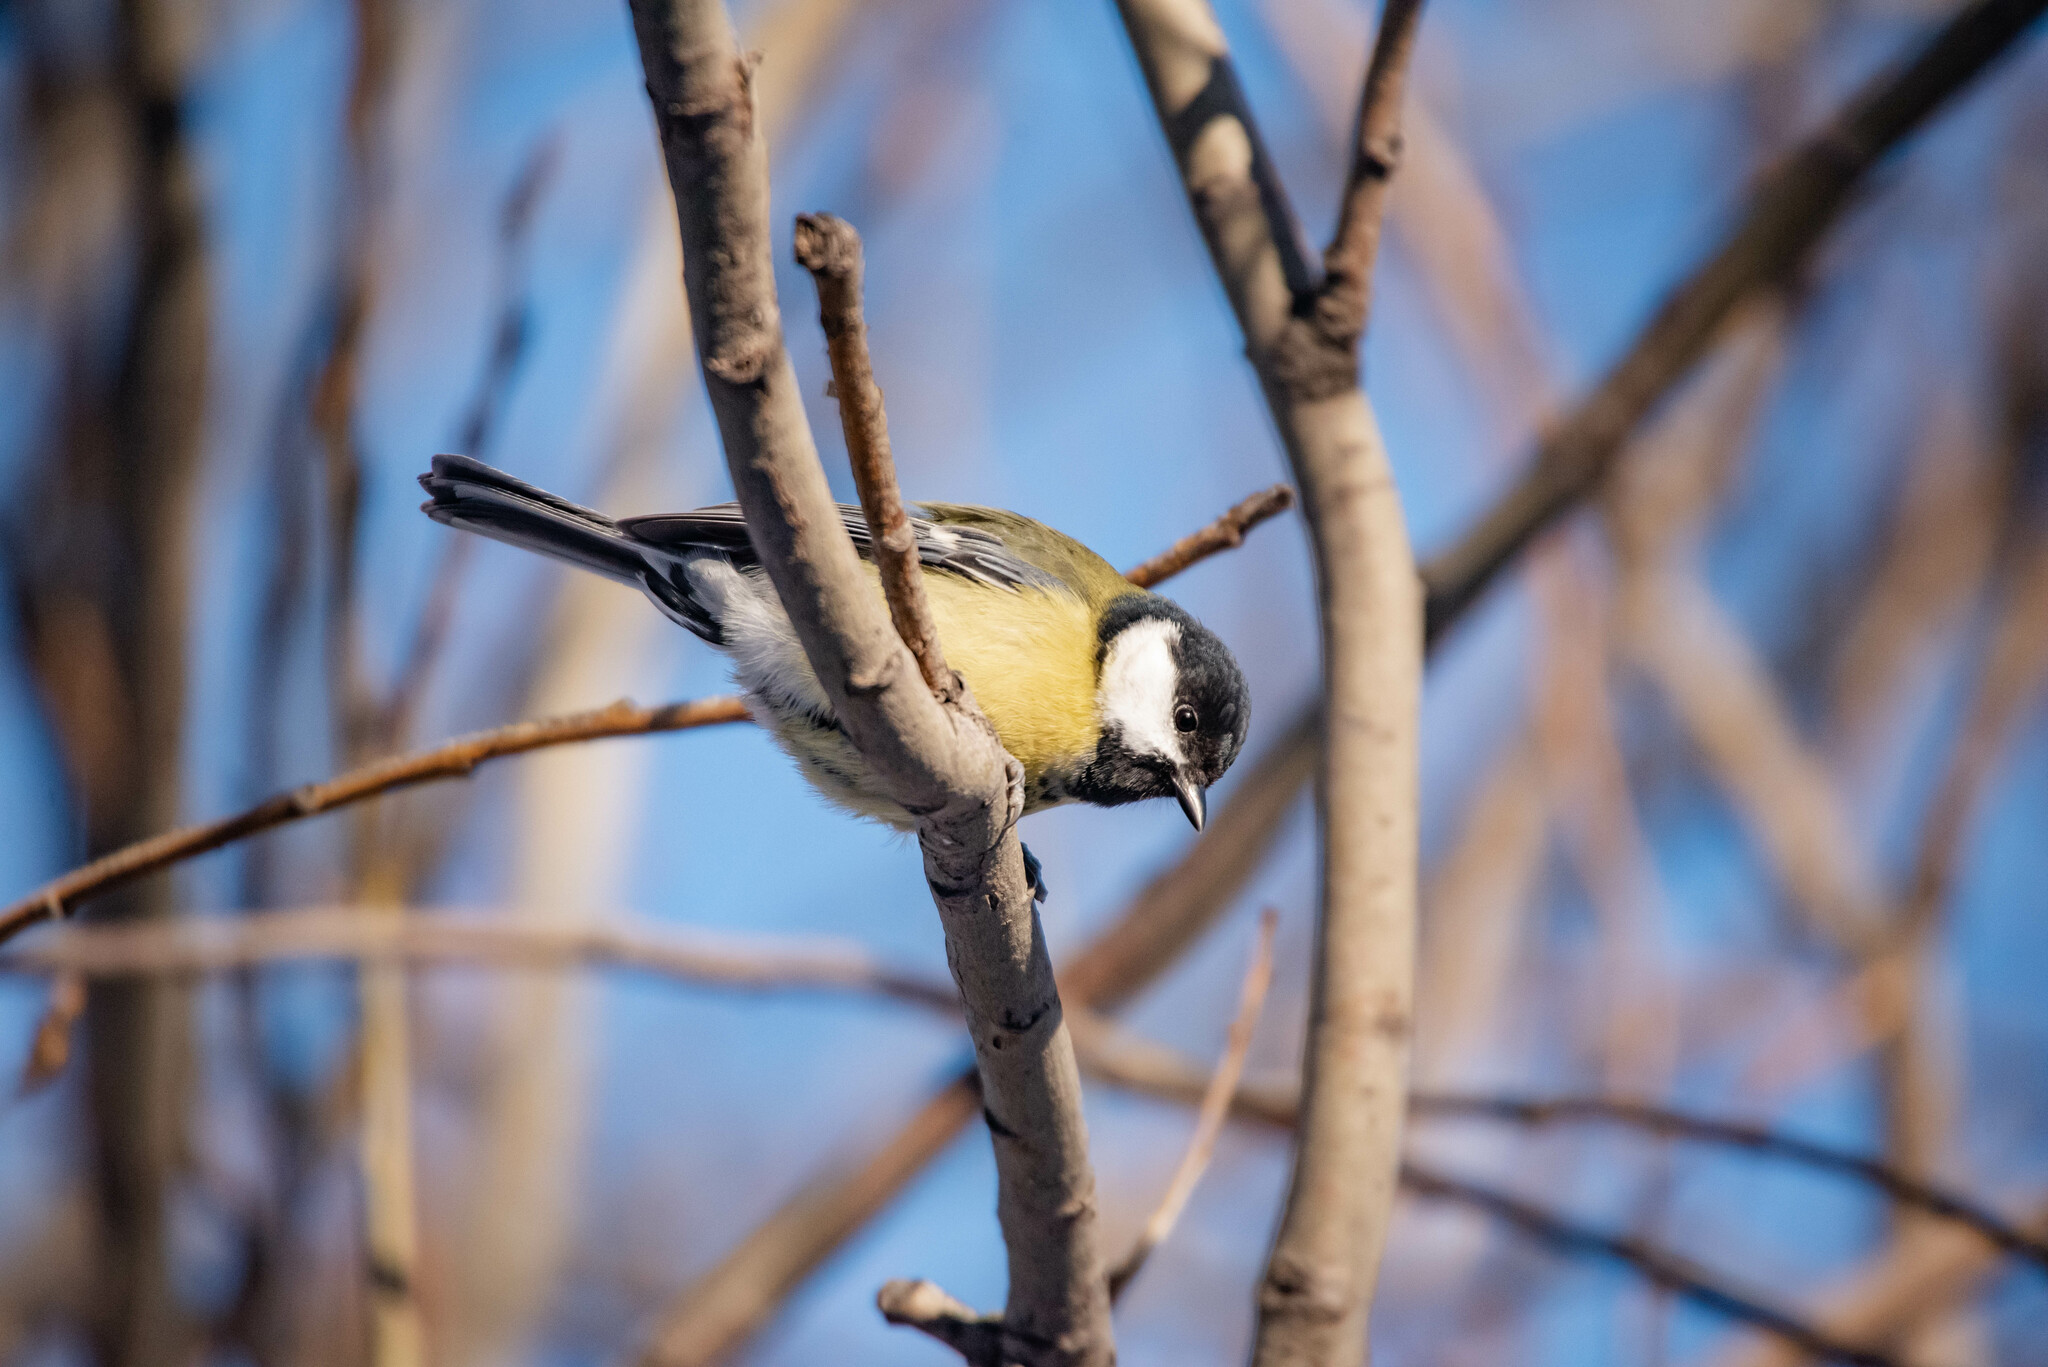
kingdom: Animalia
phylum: Chordata
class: Aves
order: Passeriformes
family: Paridae
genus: Parus
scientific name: Parus major
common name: Great tit
